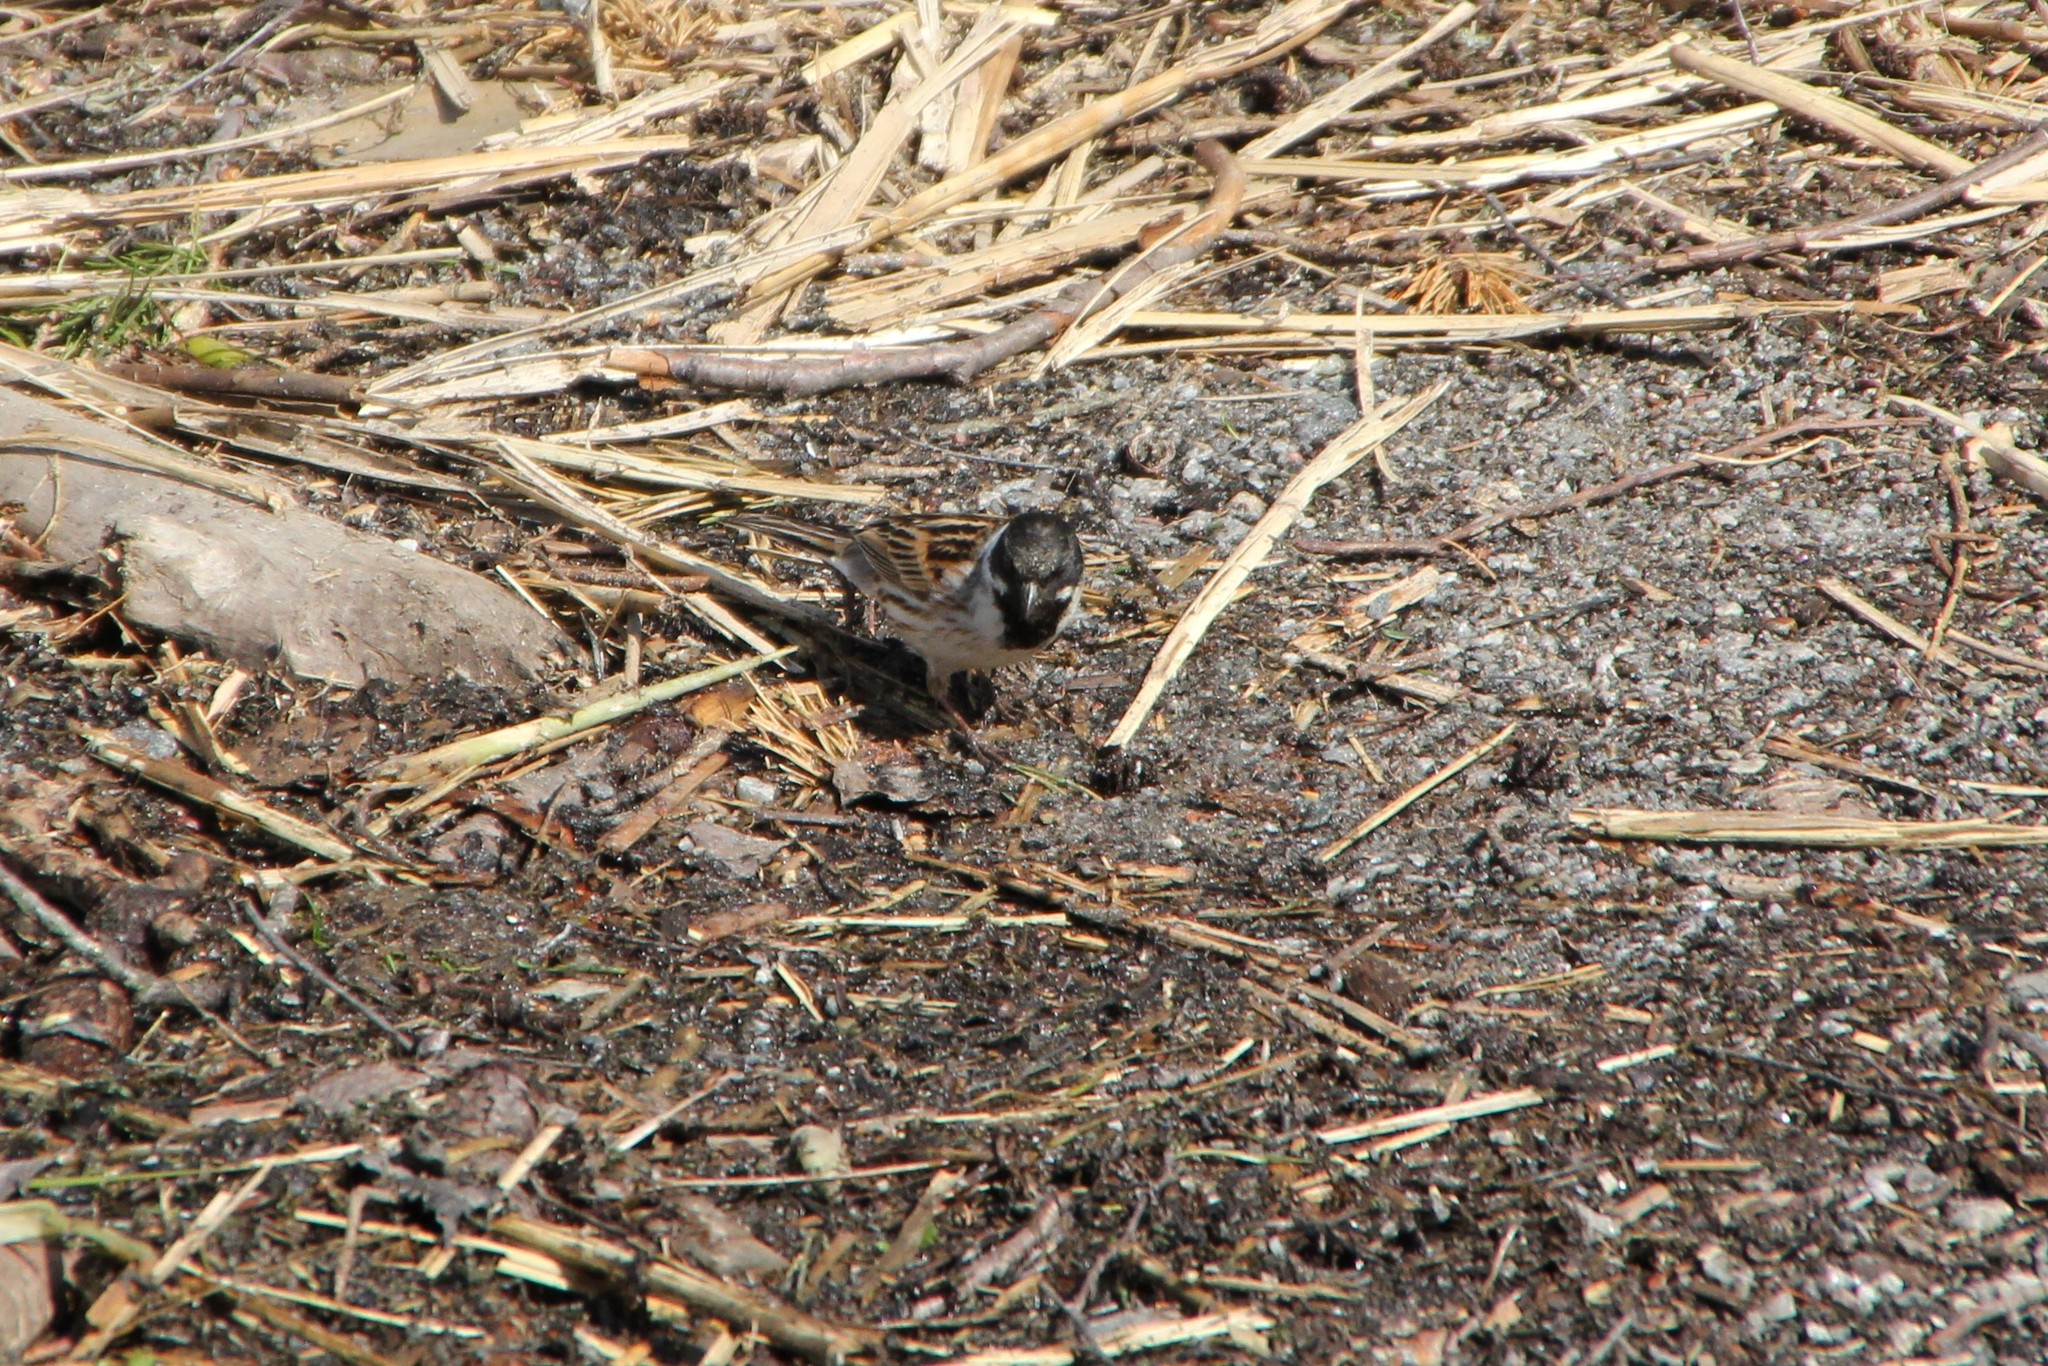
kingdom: Animalia
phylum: Chordata
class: Aves
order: Passeriformes
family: Emberizidae
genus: Emberiza
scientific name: Emberiza schoeniclus
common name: Reed bunting
